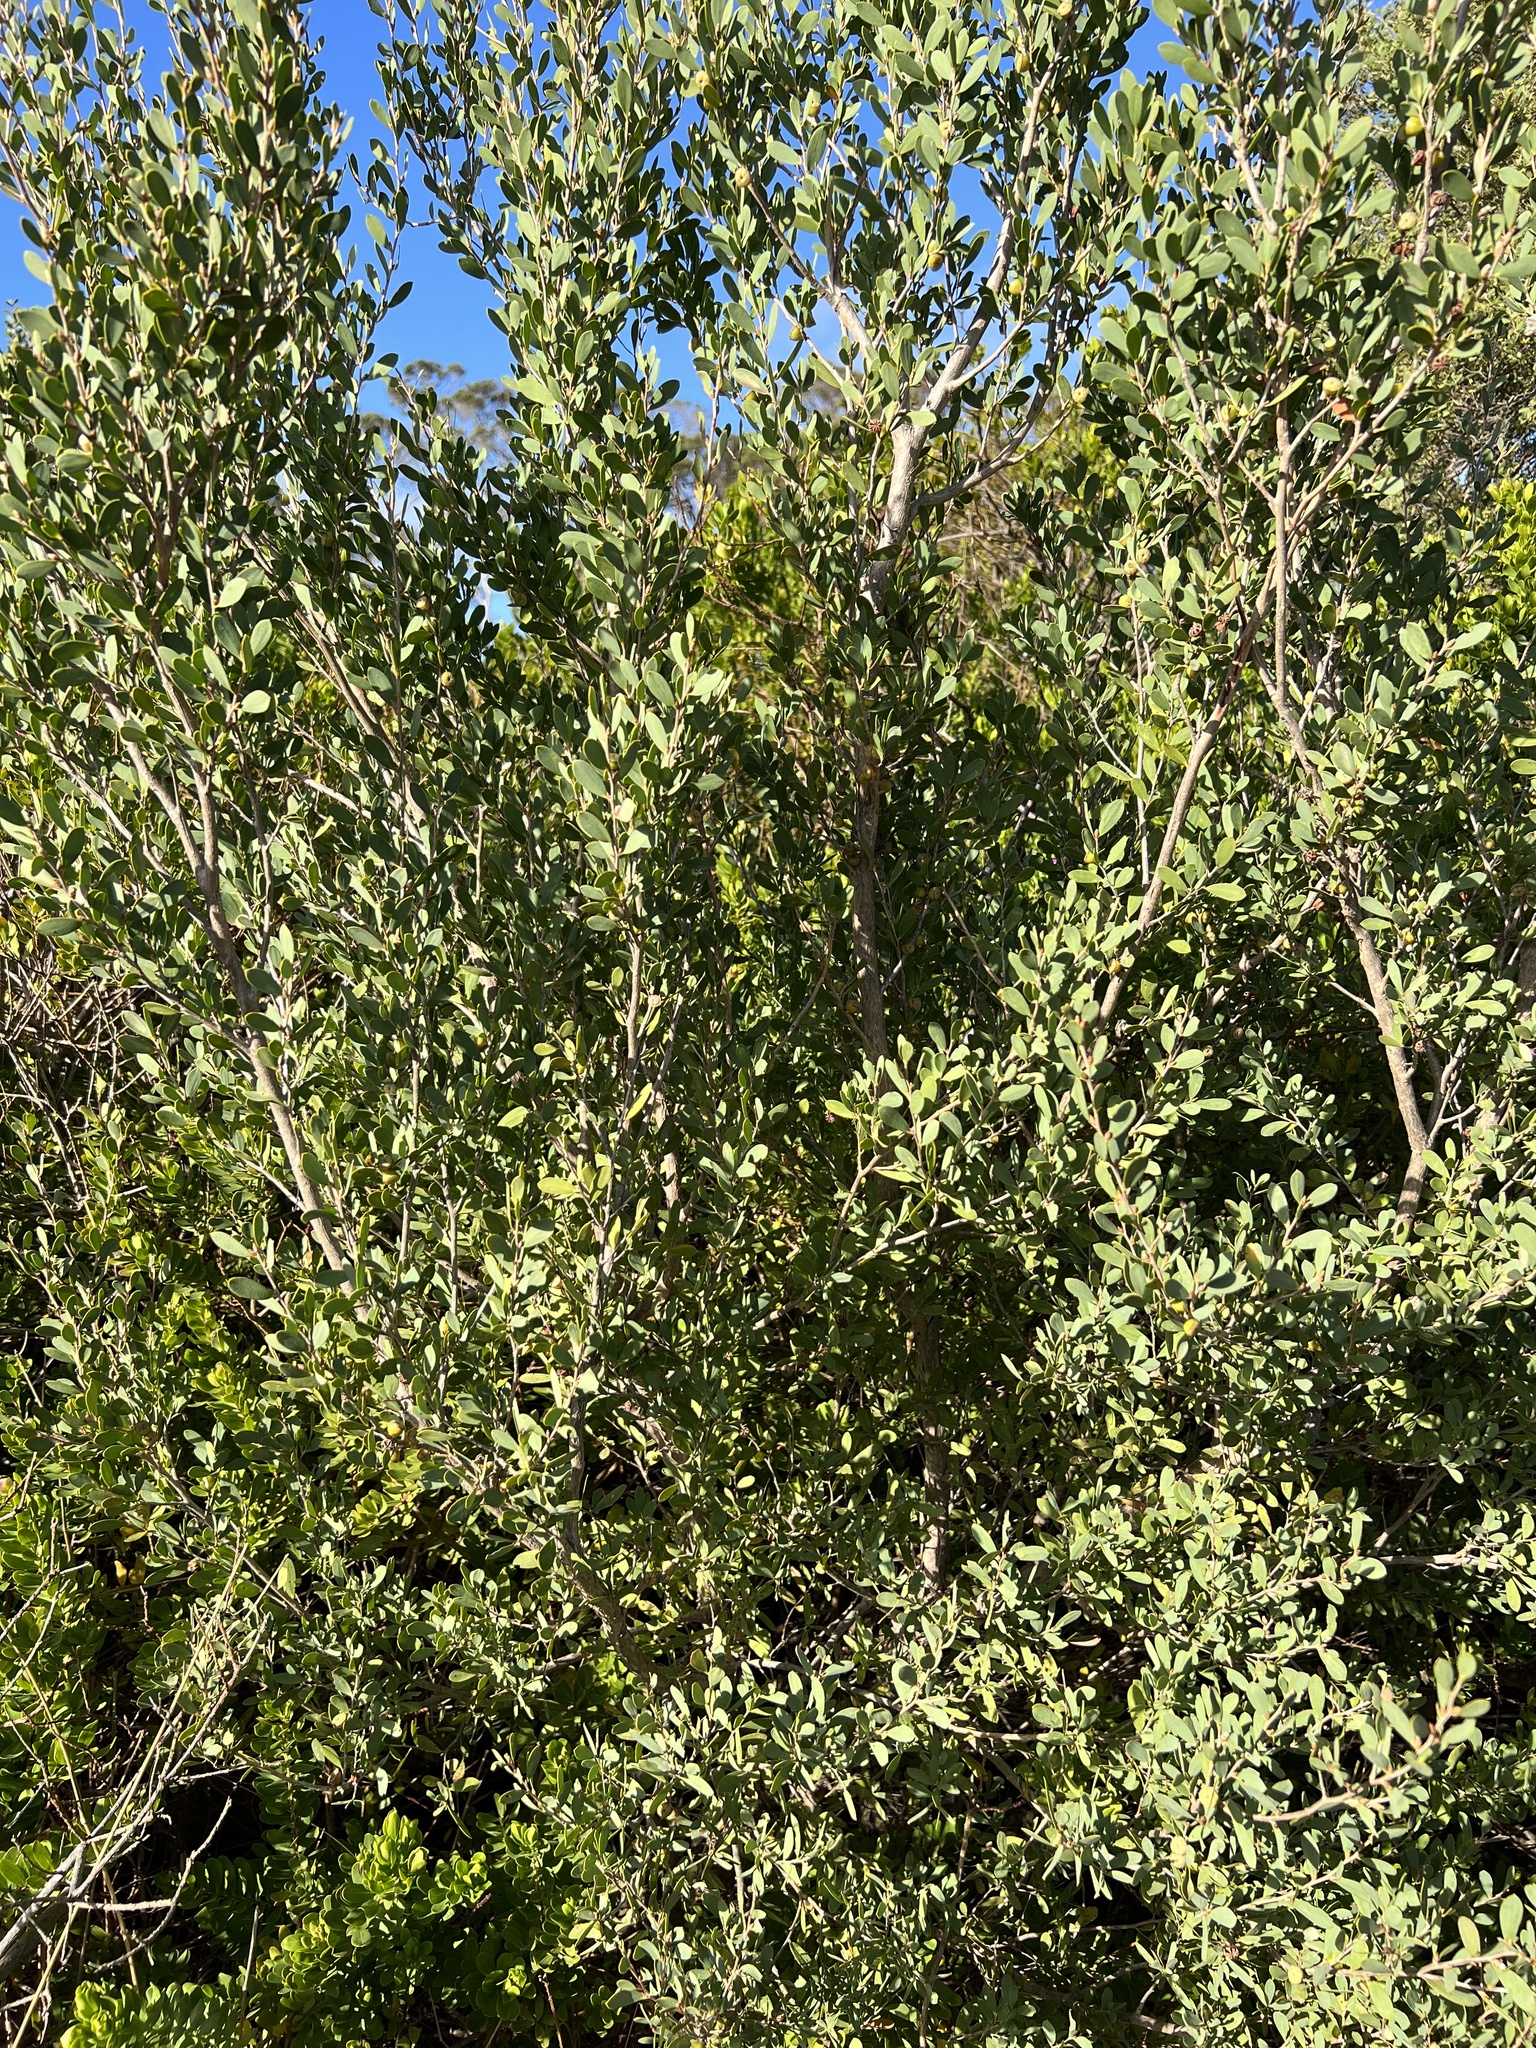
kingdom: Plantae
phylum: Tracheophyta
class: Magnoliopsida
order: Lamiales
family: Scrophulariaceae
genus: Myoporum
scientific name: Myoporum insulare
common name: Common boobialla
